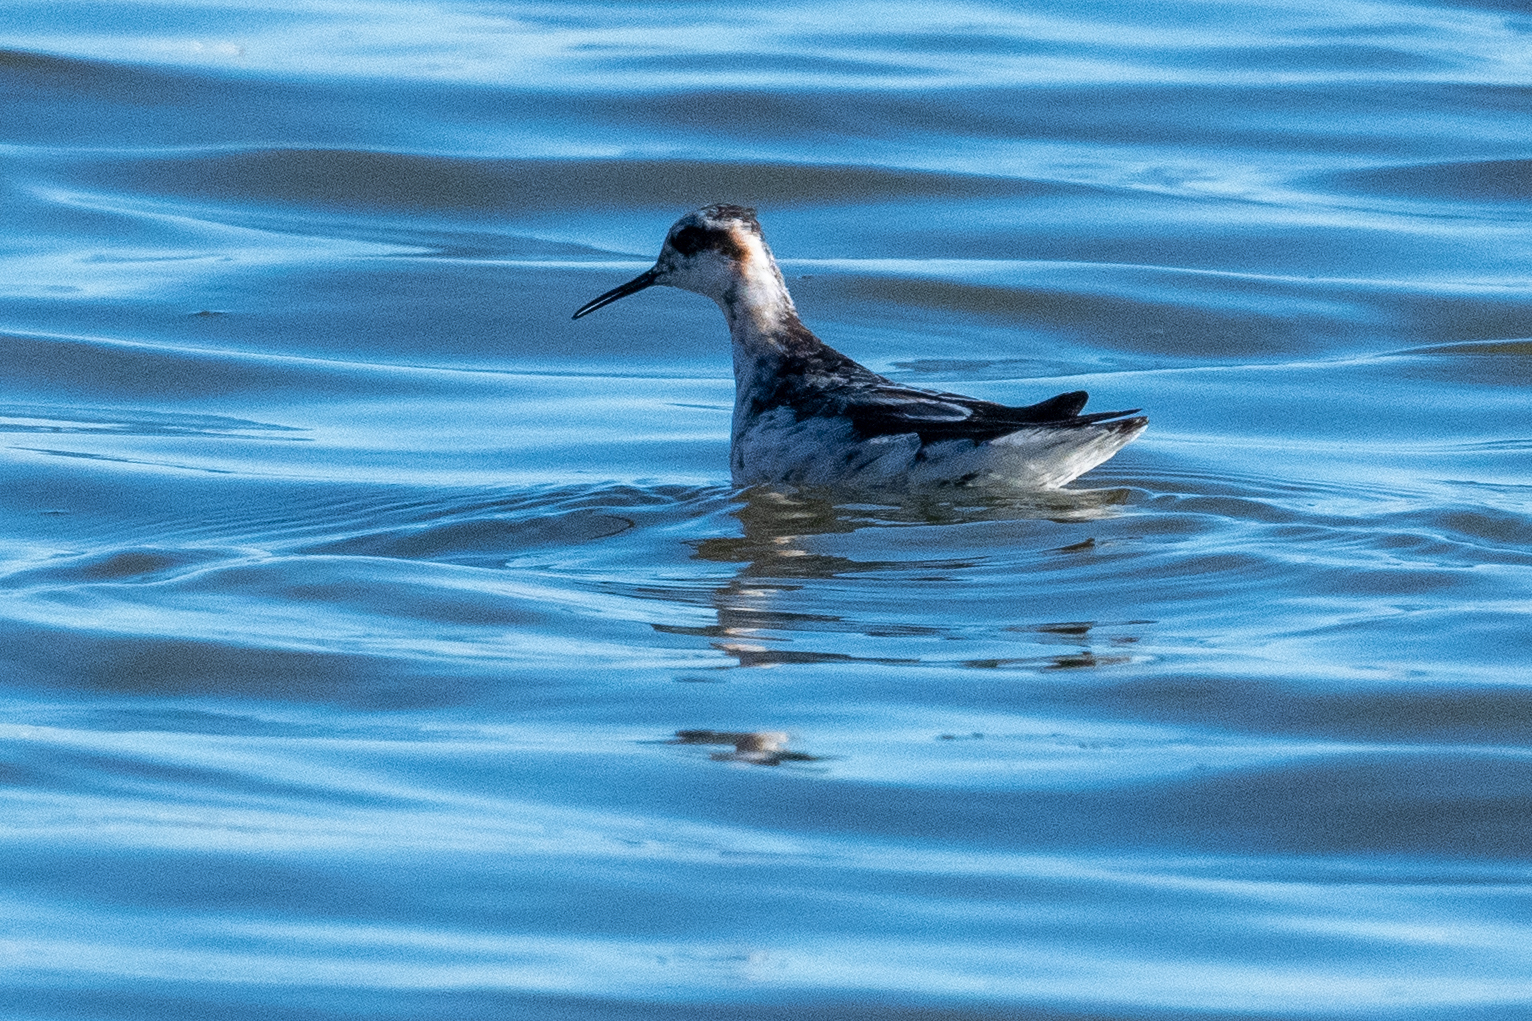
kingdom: Animalia
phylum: Chordata
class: Aves
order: Charadriiformes
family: Scolopacidae
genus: Phalaropus
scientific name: Phalaropus lobatus
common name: Red-necked phalarope
